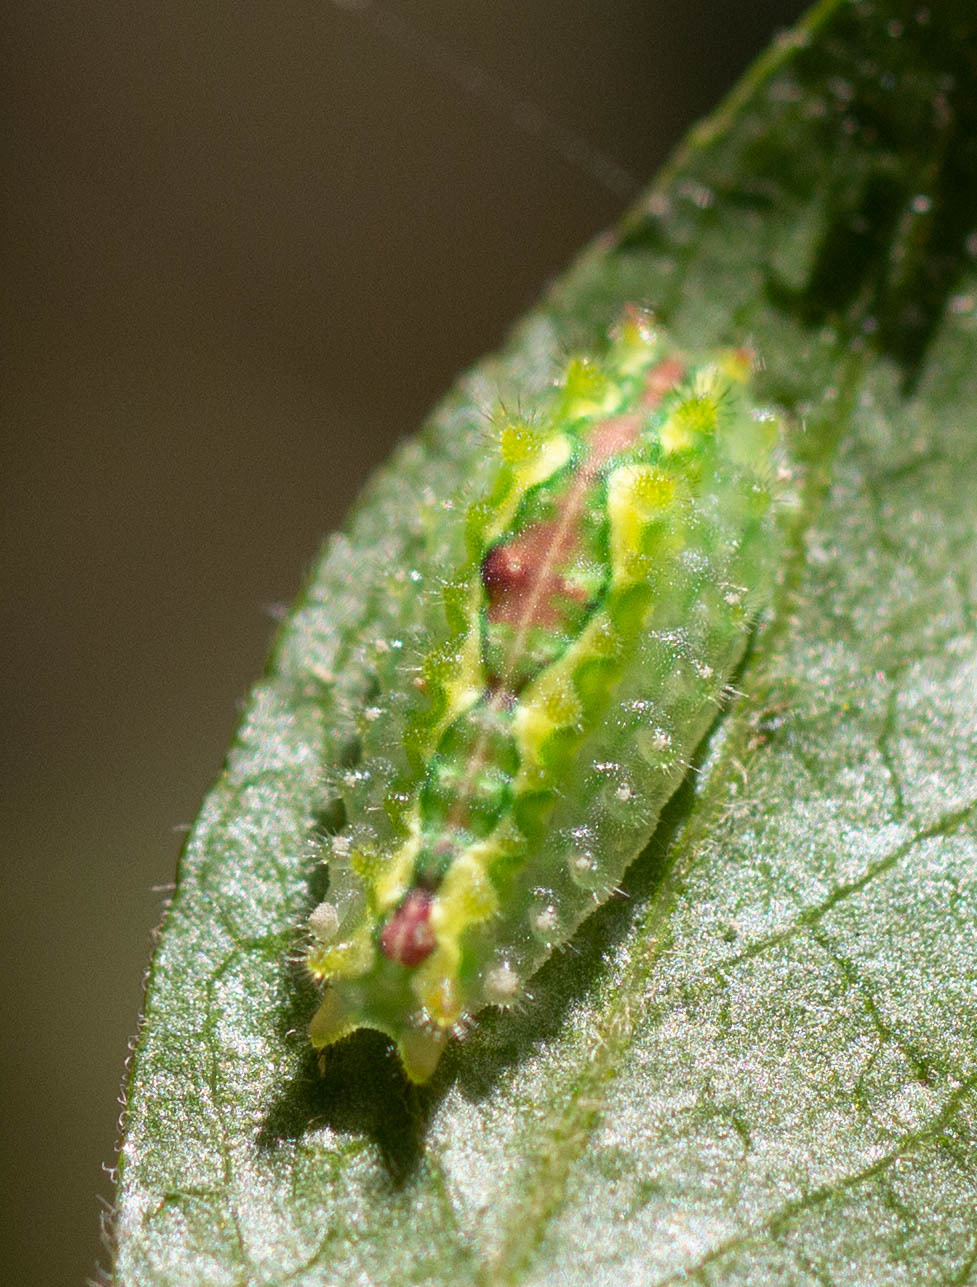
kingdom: Animalia
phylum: Arthropoda
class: Insecta
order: Lepidoptera
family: Limacodidae
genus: Adoneta
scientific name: Adoneta spinuloides
